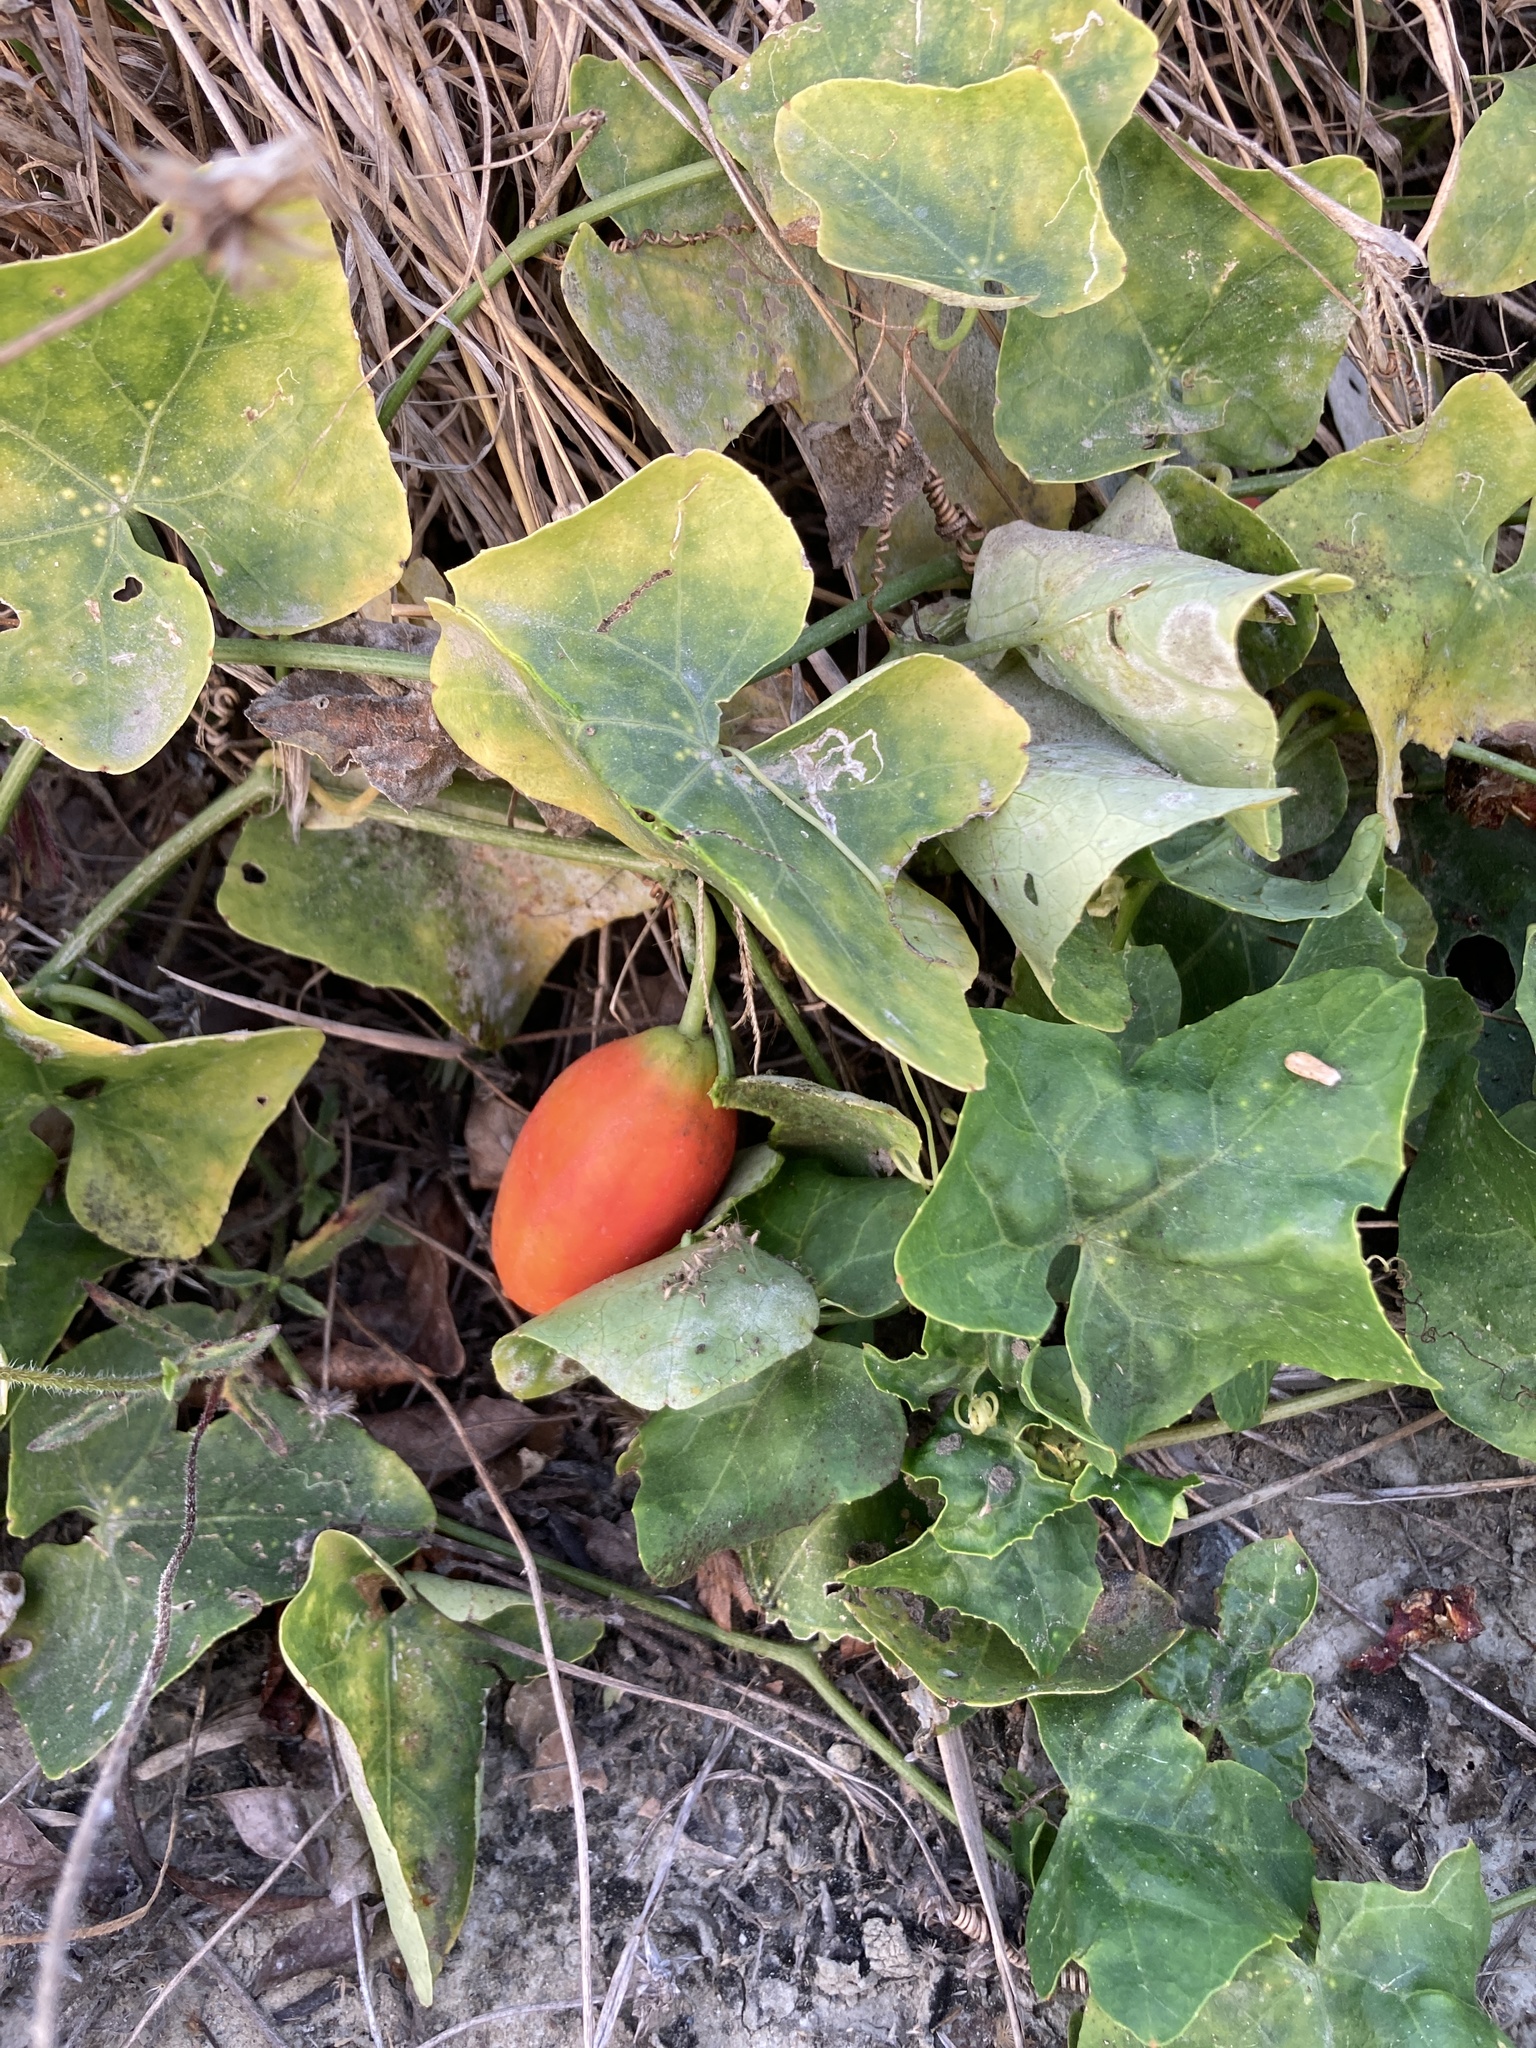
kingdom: Plantae
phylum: Tracheophyta
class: Magnoliopsida
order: Cucurbitales
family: Cucurbitaceae
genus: Coccinia
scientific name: Coccinia grandis
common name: Ivy gourd
